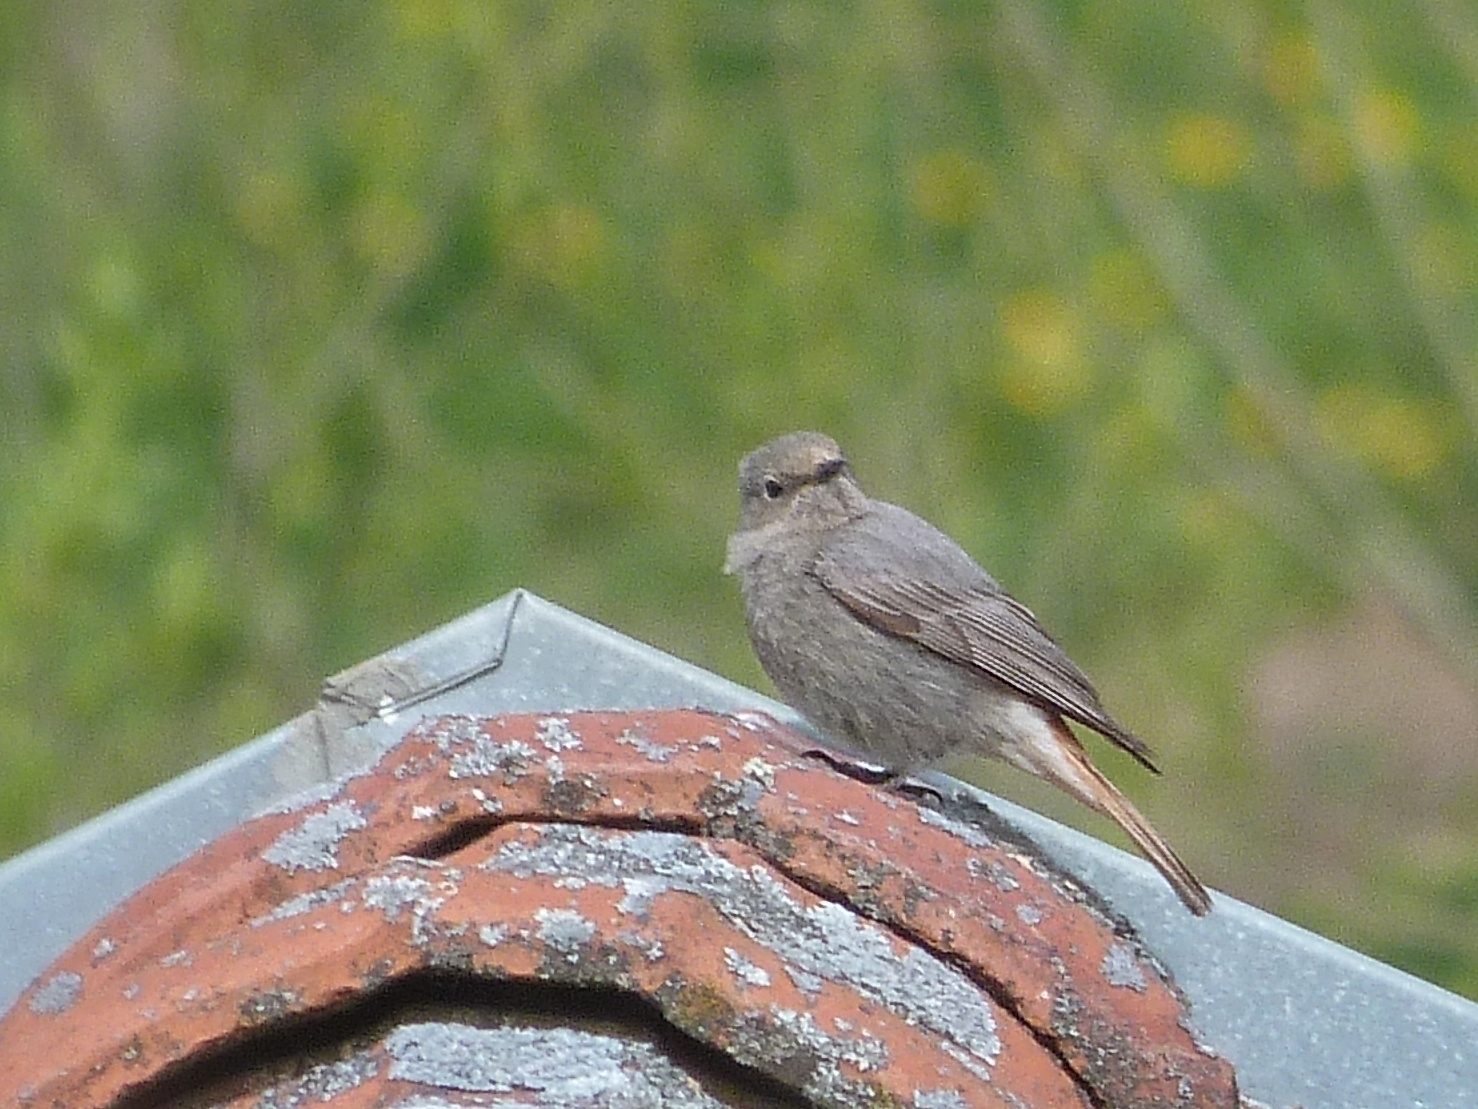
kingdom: Animalia
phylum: Chordata
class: Aves
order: Passeriformes
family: Muscicapidae
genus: Phoenicurus
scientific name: Phoenicurus ochruros
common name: Black redstart
